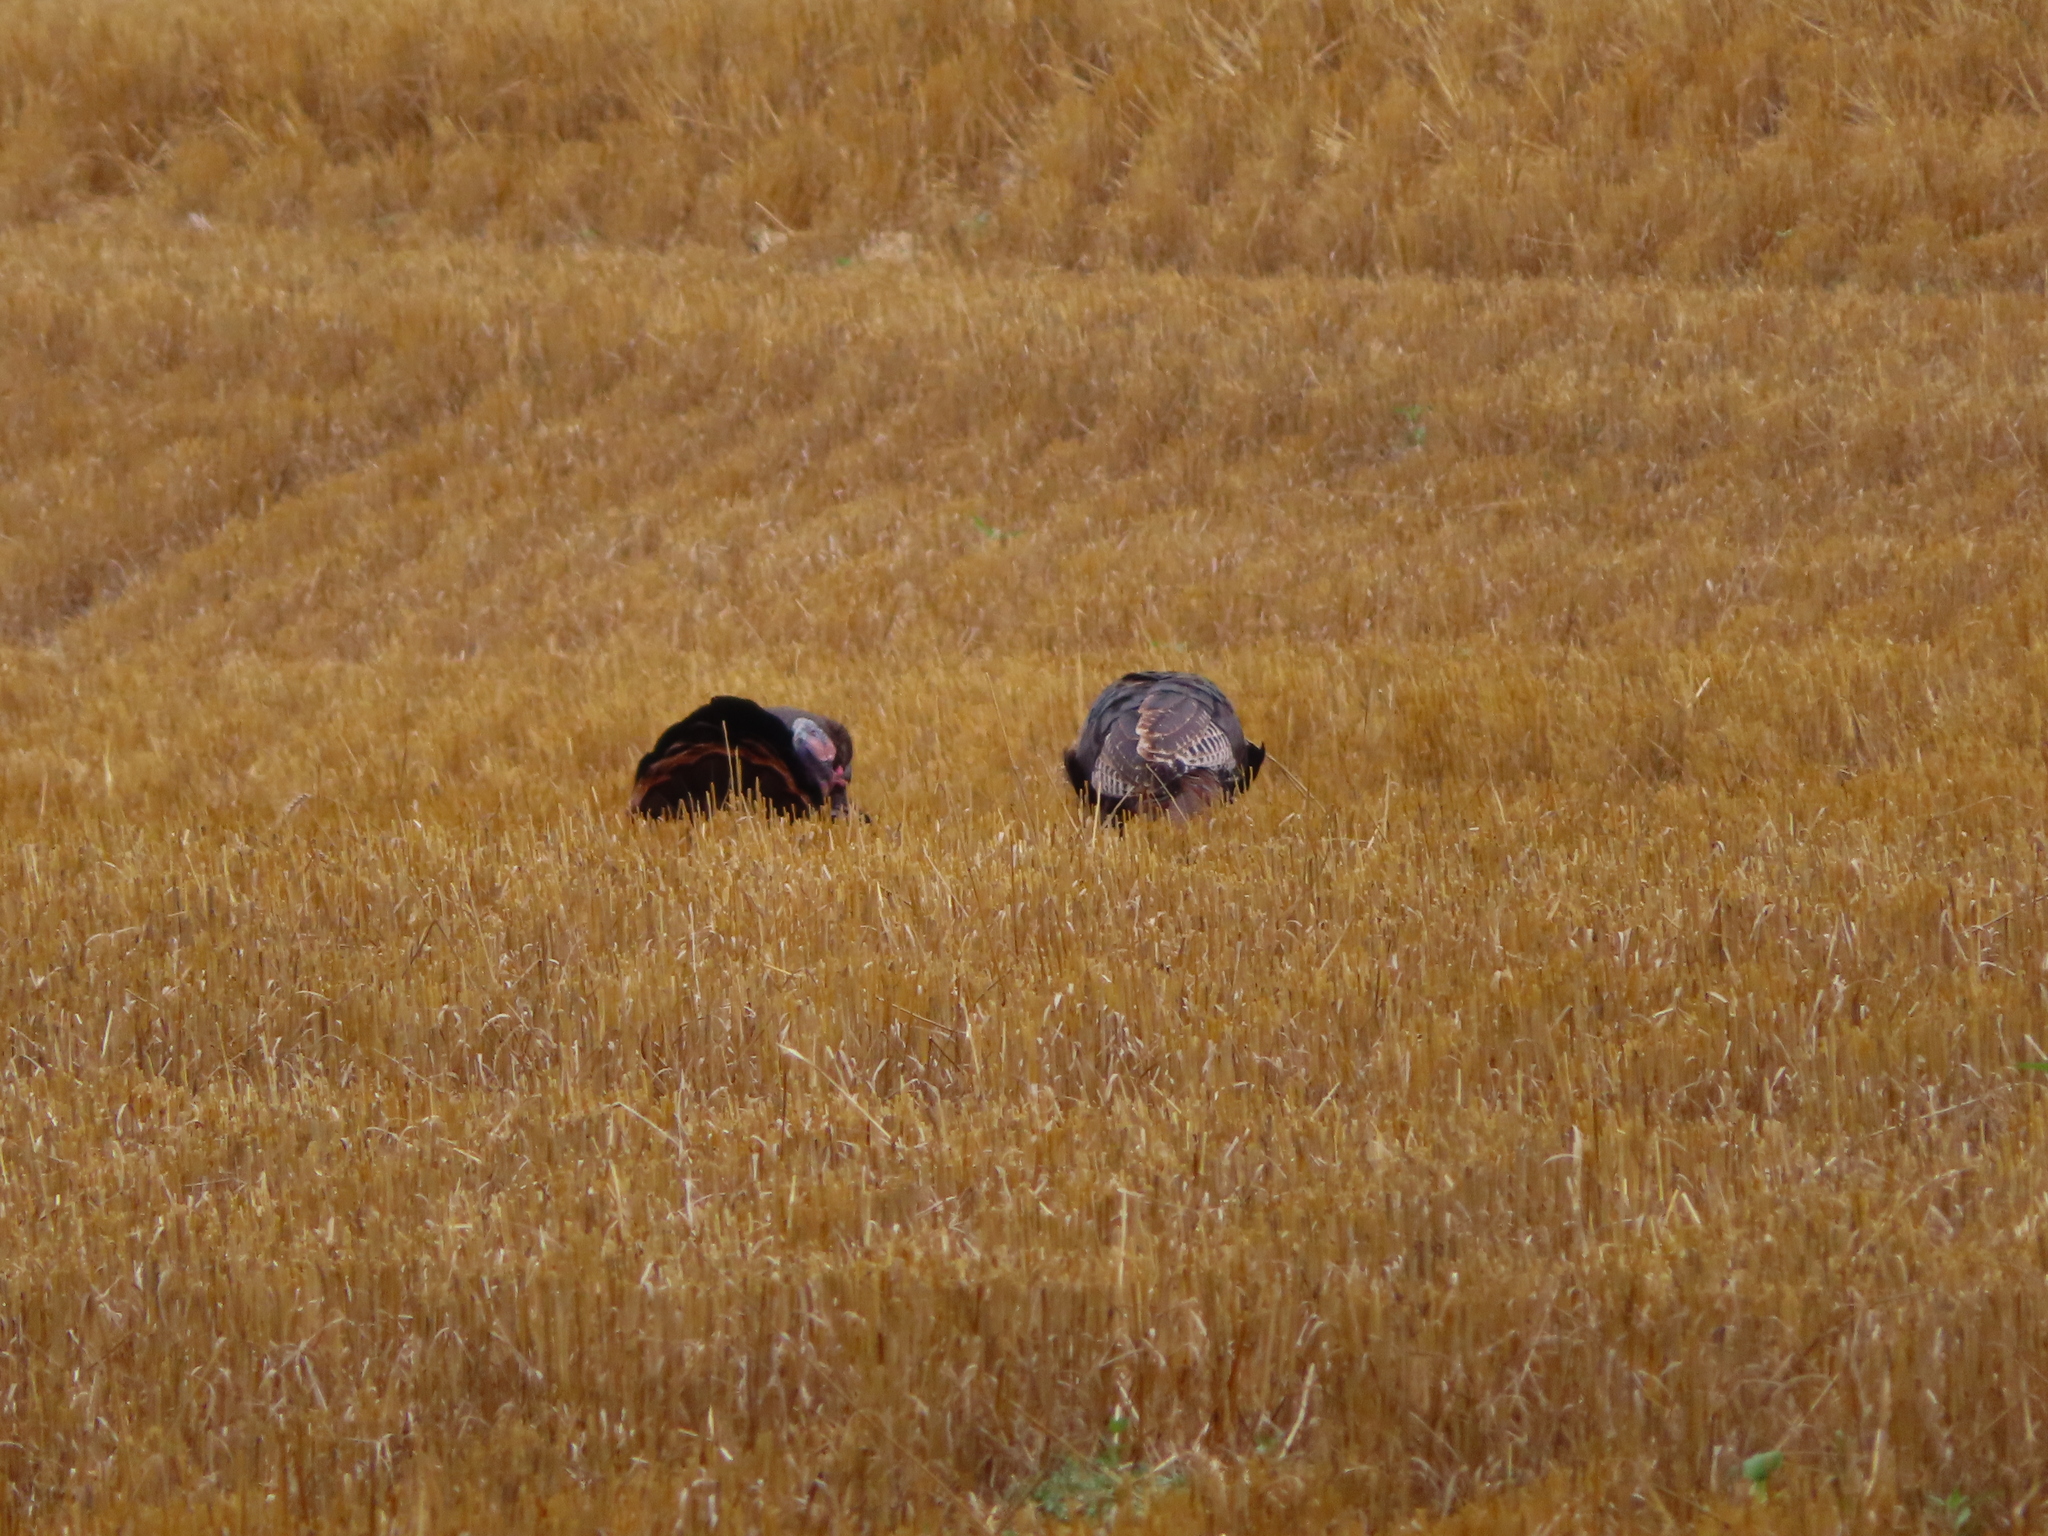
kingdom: Animalia
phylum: Chordata
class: Aves
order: Galliformes
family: Phasianidae
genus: Meleagris
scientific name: Meleagris gallopavo
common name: Wild turkey
